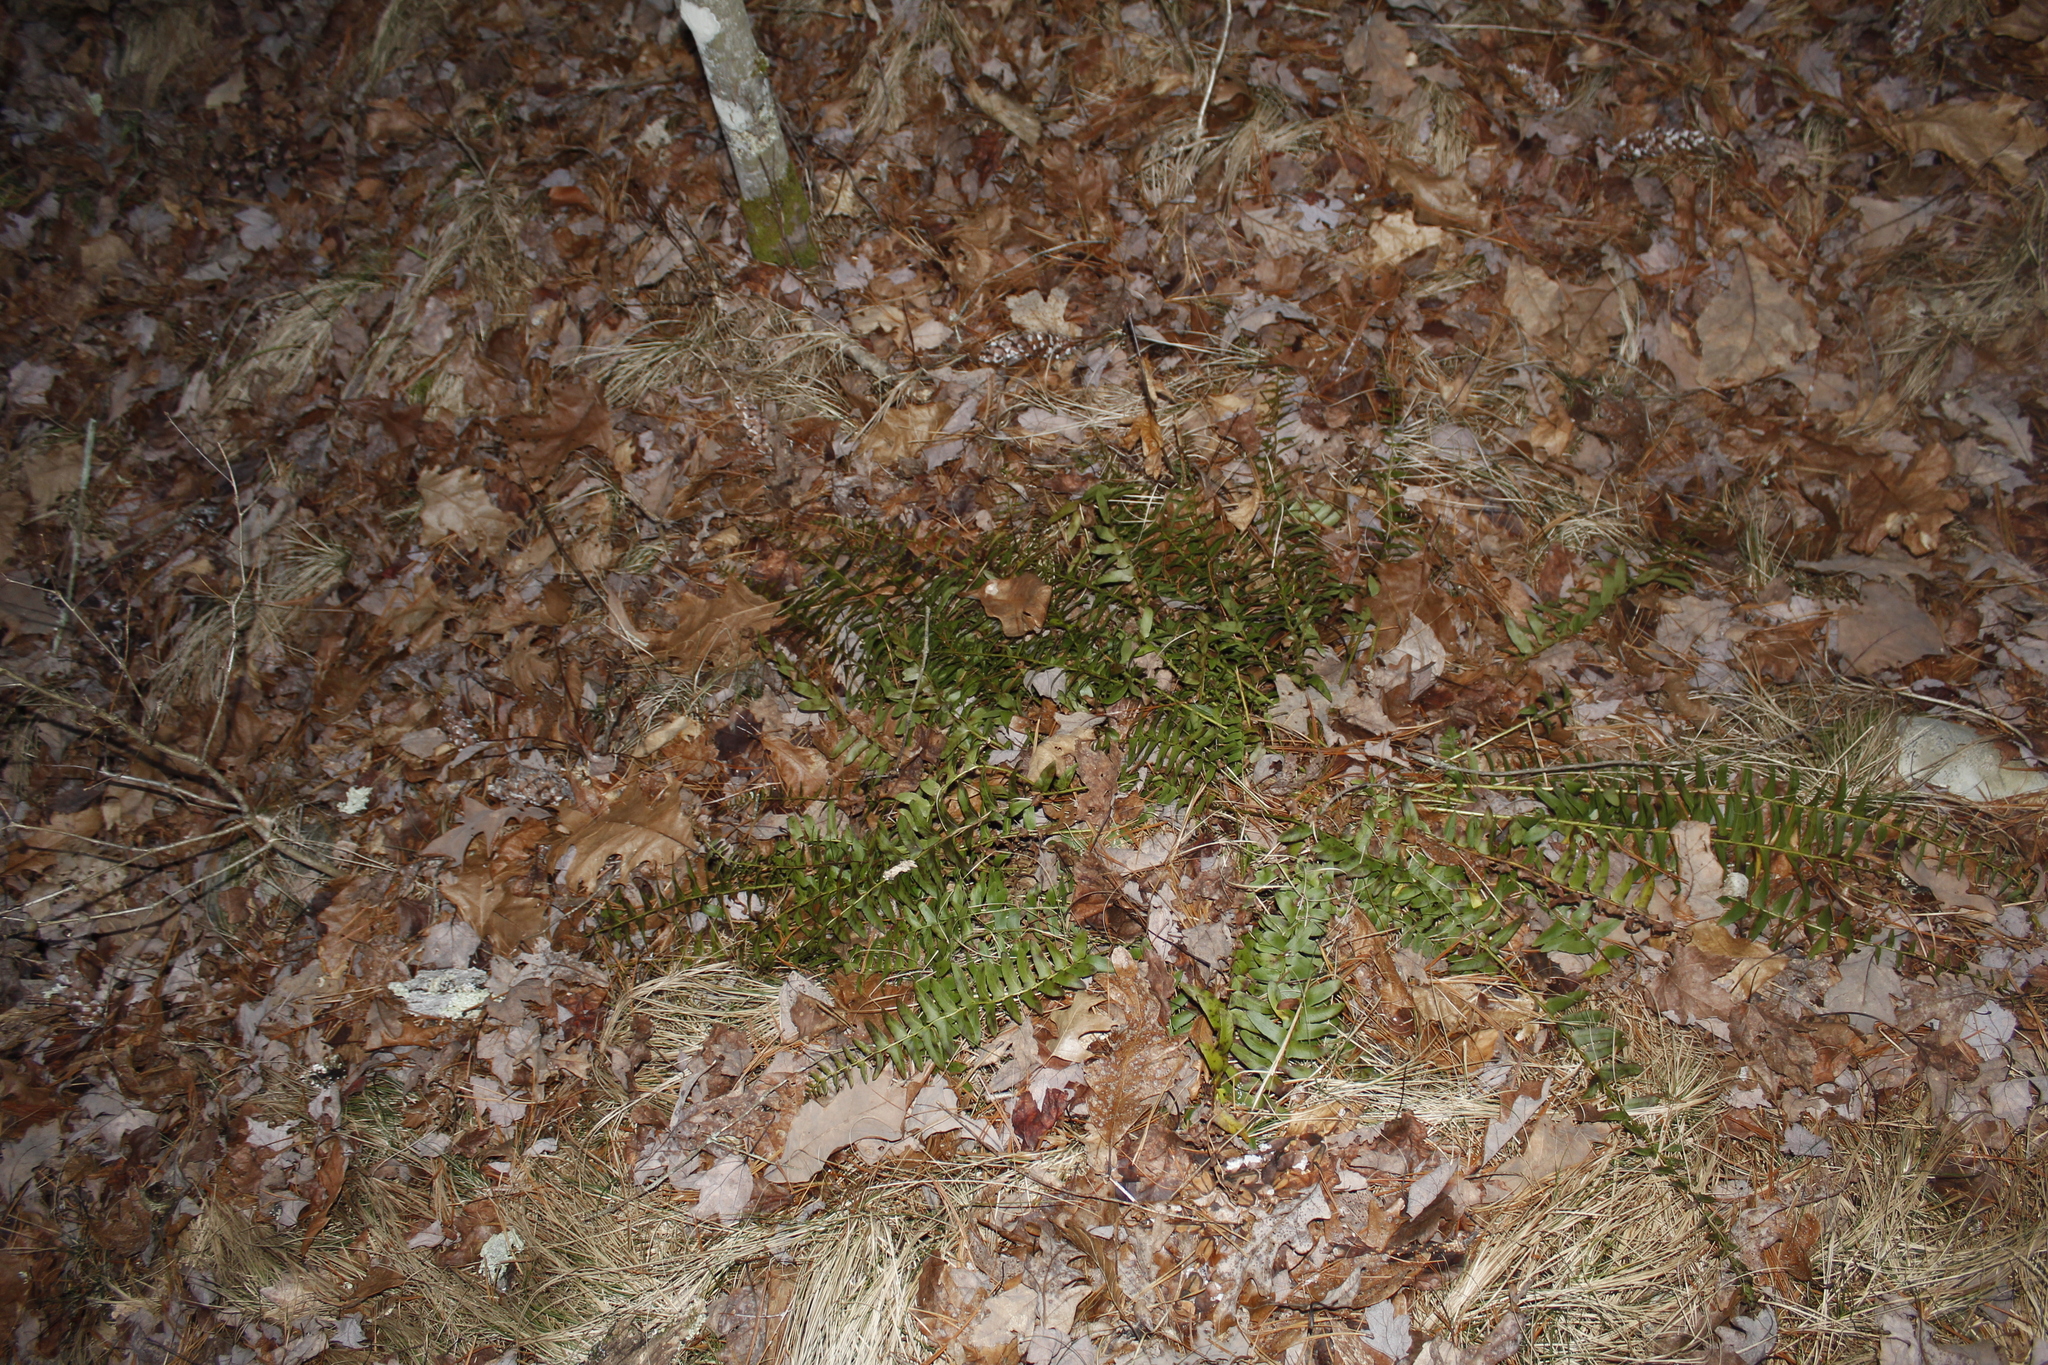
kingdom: Plantae
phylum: Tracheophyta
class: Polypodiopsida
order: Polypodiales
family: Dryopteridaceae
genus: Polystichum
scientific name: Polystichum acrostichoides
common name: Christmas fern
